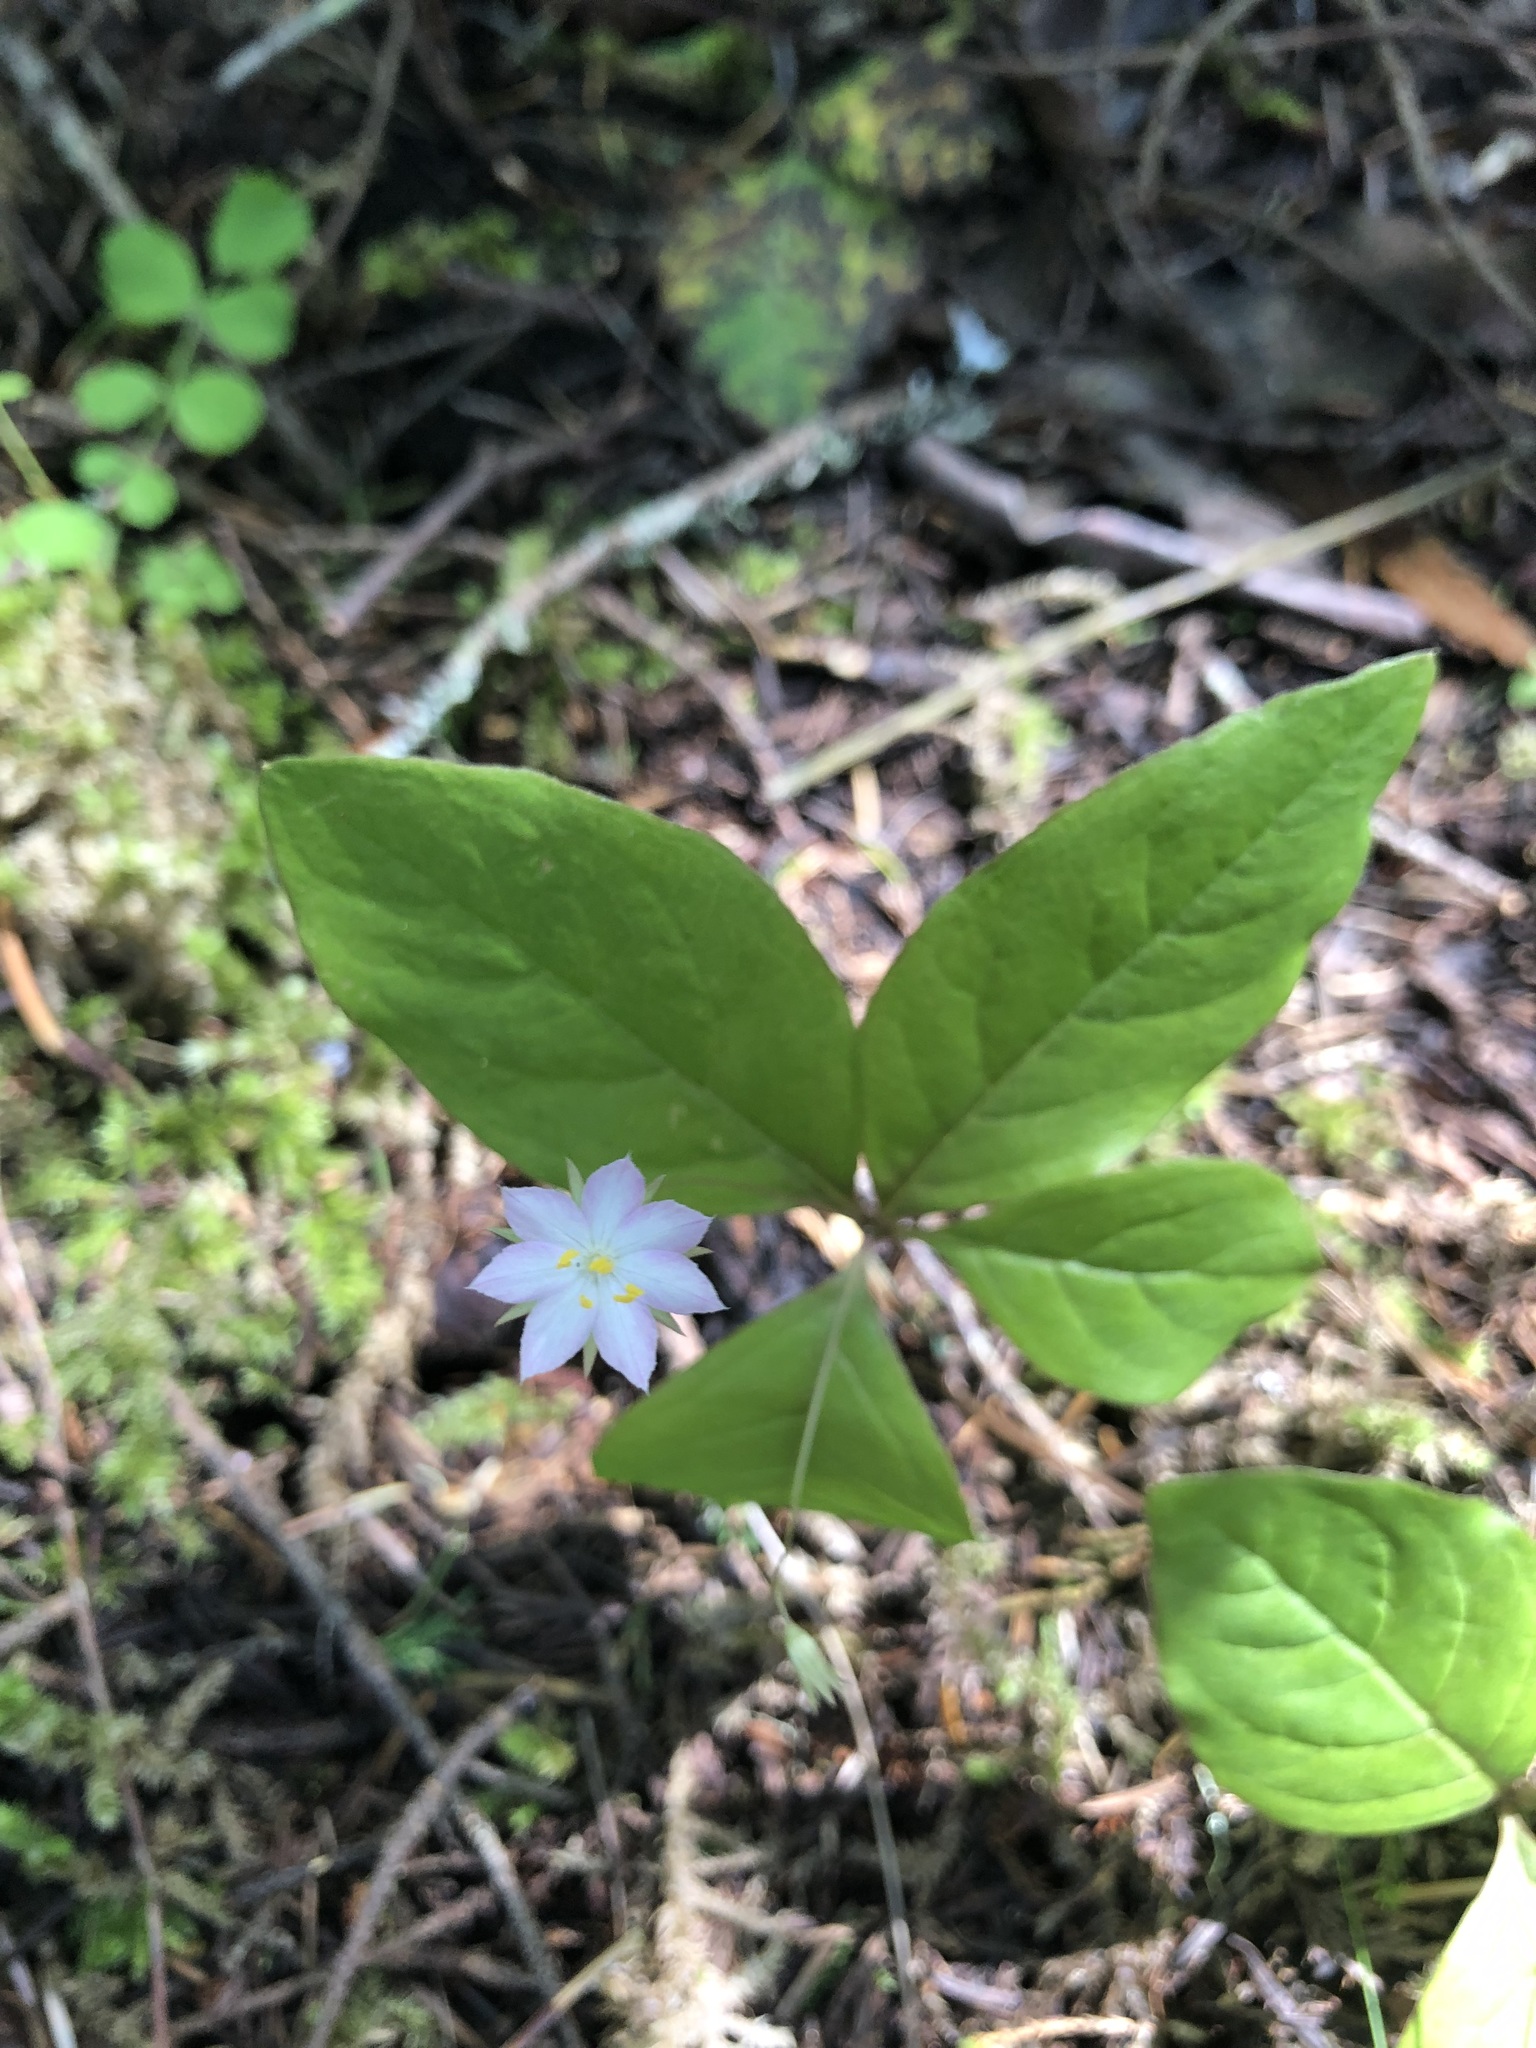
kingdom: Plantae
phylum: Tracheophyta
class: Magnoliopsida
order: Ericales
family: Primulaceae
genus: Lysimachia
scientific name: Lysimachia latifolia
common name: Pacific starflower
